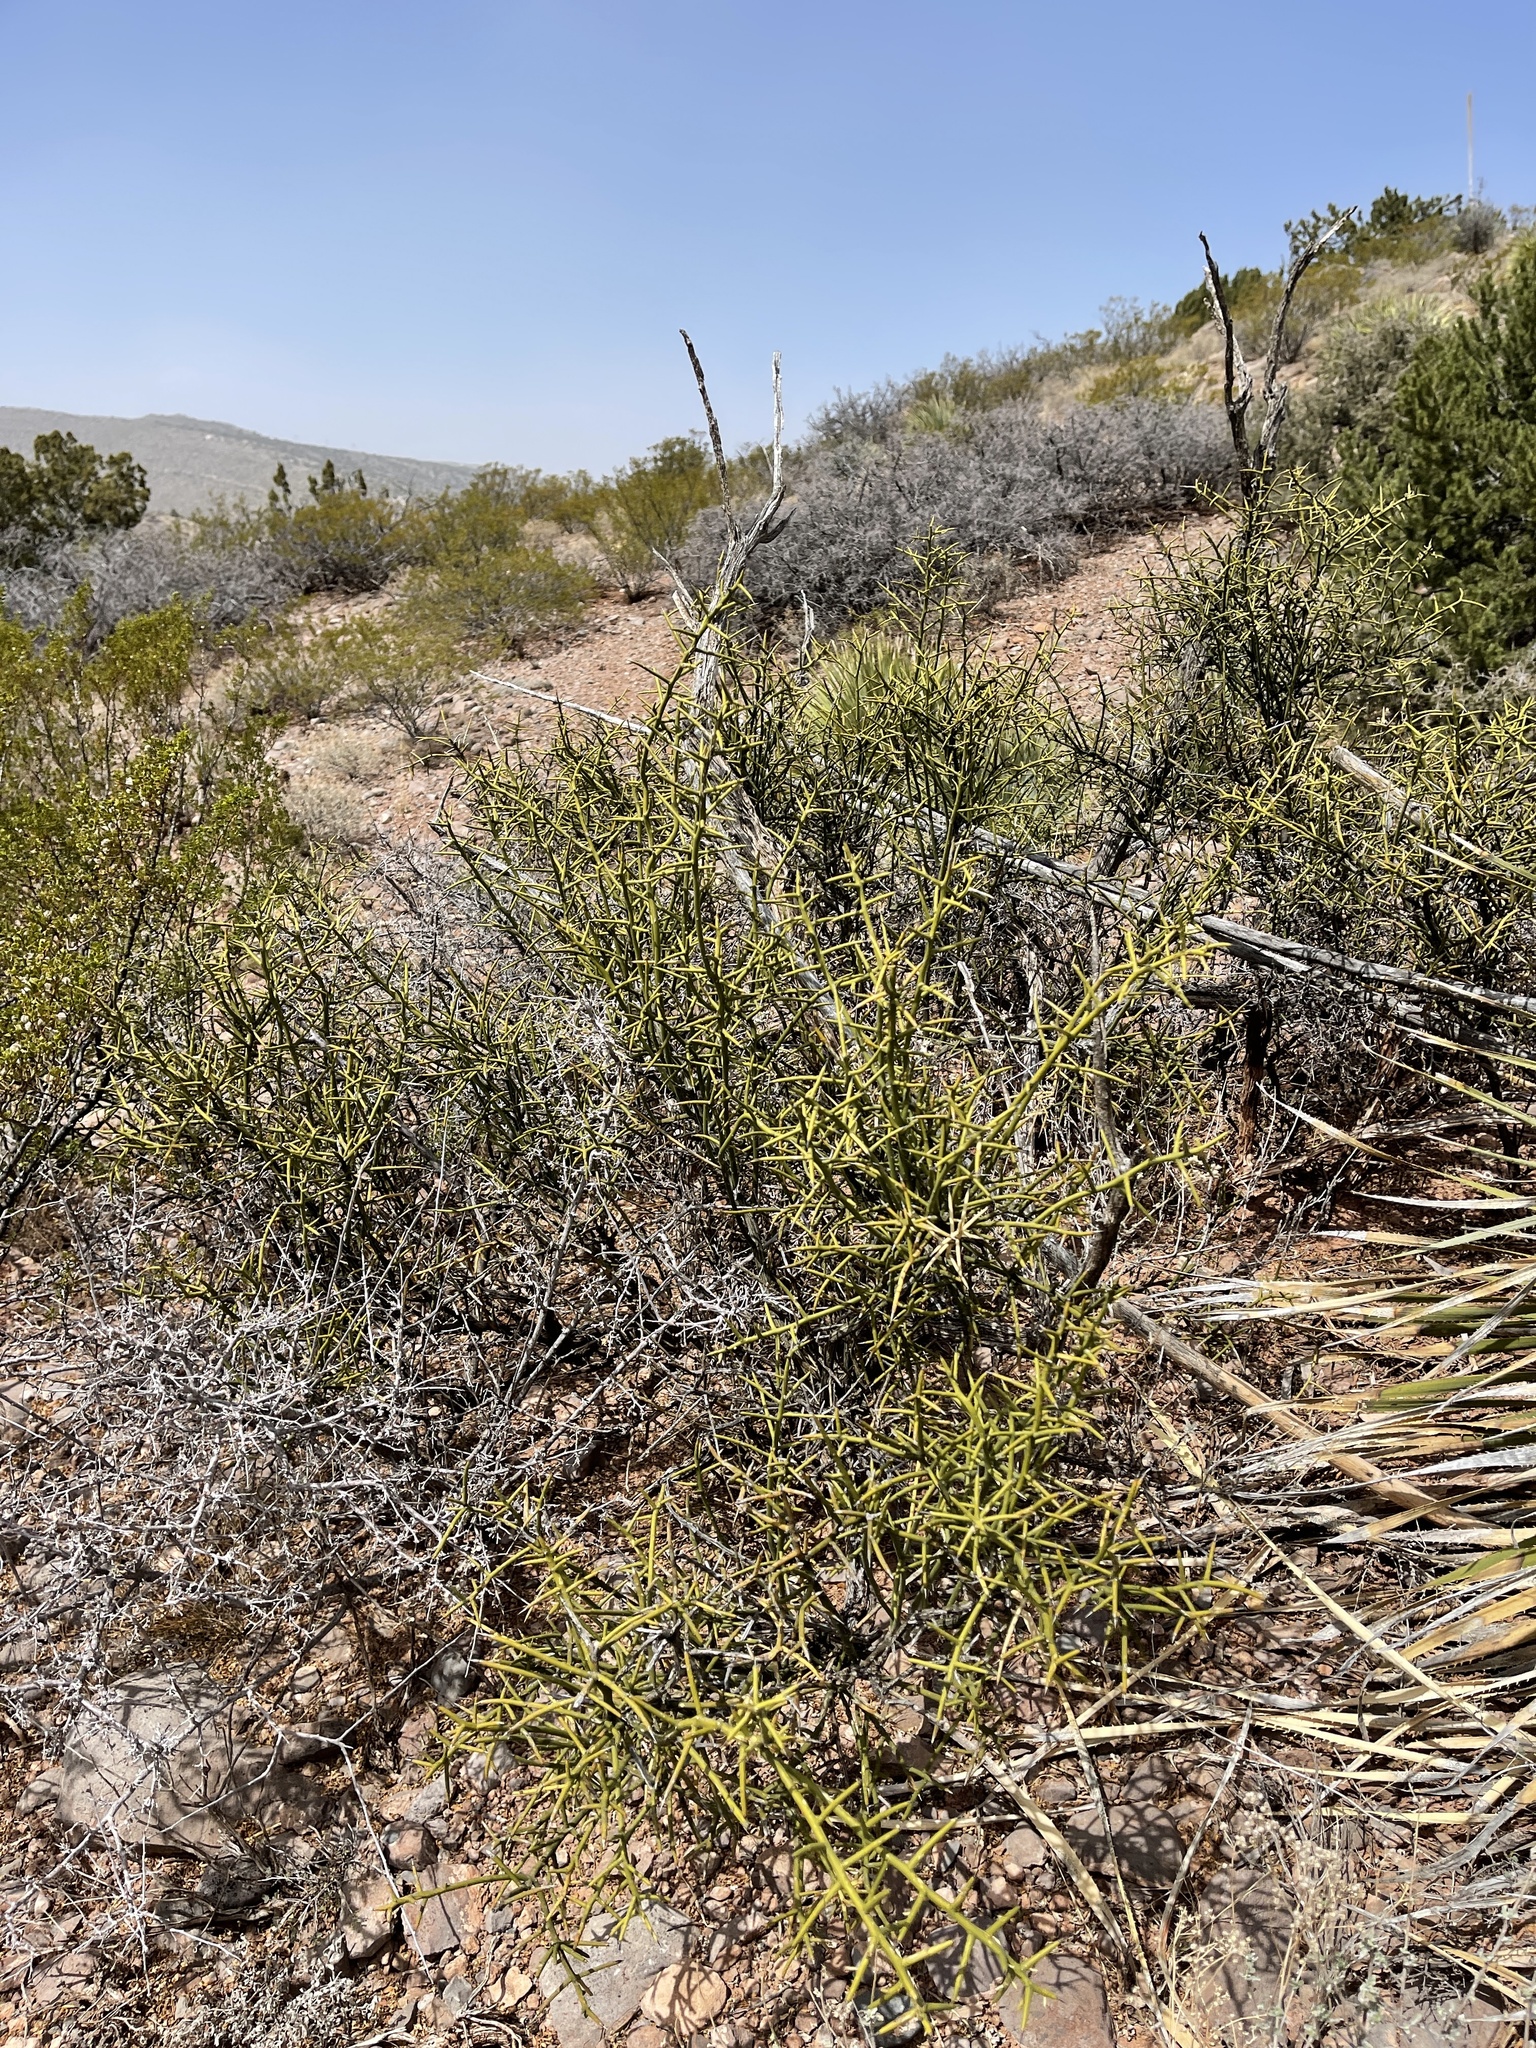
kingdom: Plantae
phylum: Tracheophyta
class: Magnoliopsida
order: Brassicales
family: Koeberliniaceae
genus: Koeberlinia
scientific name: Koeberlinia spinosa
